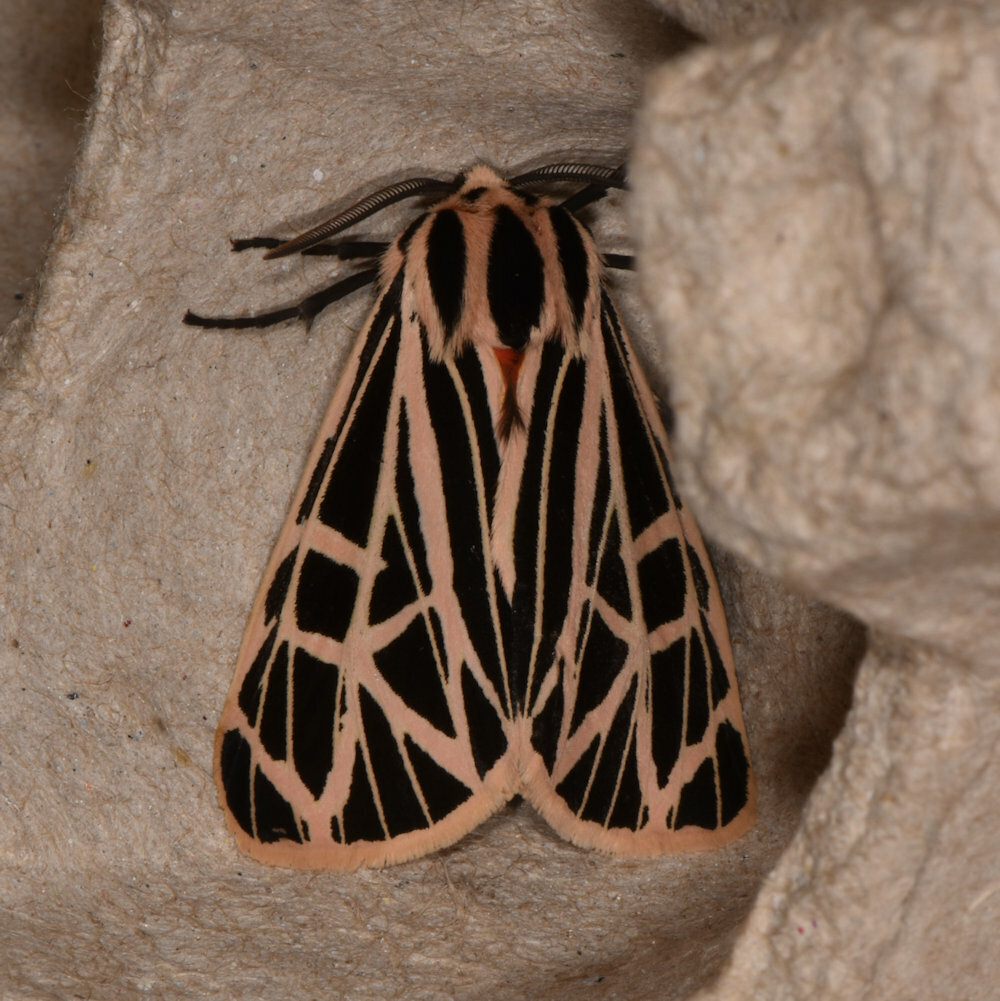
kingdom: Animalia
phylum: Arthropoda
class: Insecta
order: Lepidoptera
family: Erebidae
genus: Grammia
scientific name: Grammia virgo
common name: Virgin tiger moth
